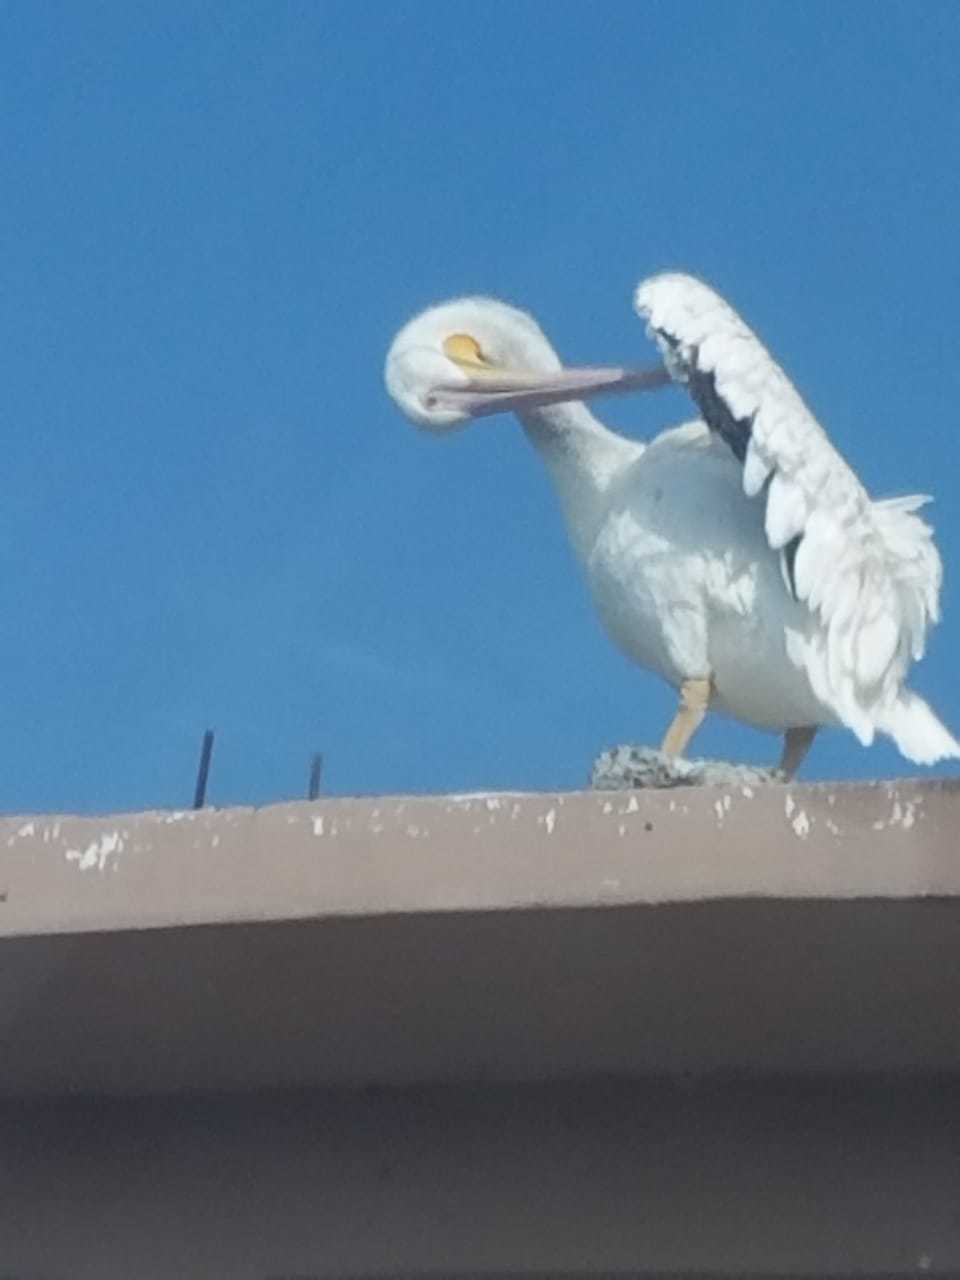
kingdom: Animalia
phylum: Chordata
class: Aves
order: Pelecaniformes
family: Pelecanidae
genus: Pelecanus
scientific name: Pelecanus erythrorhynchos
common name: American white pelican
